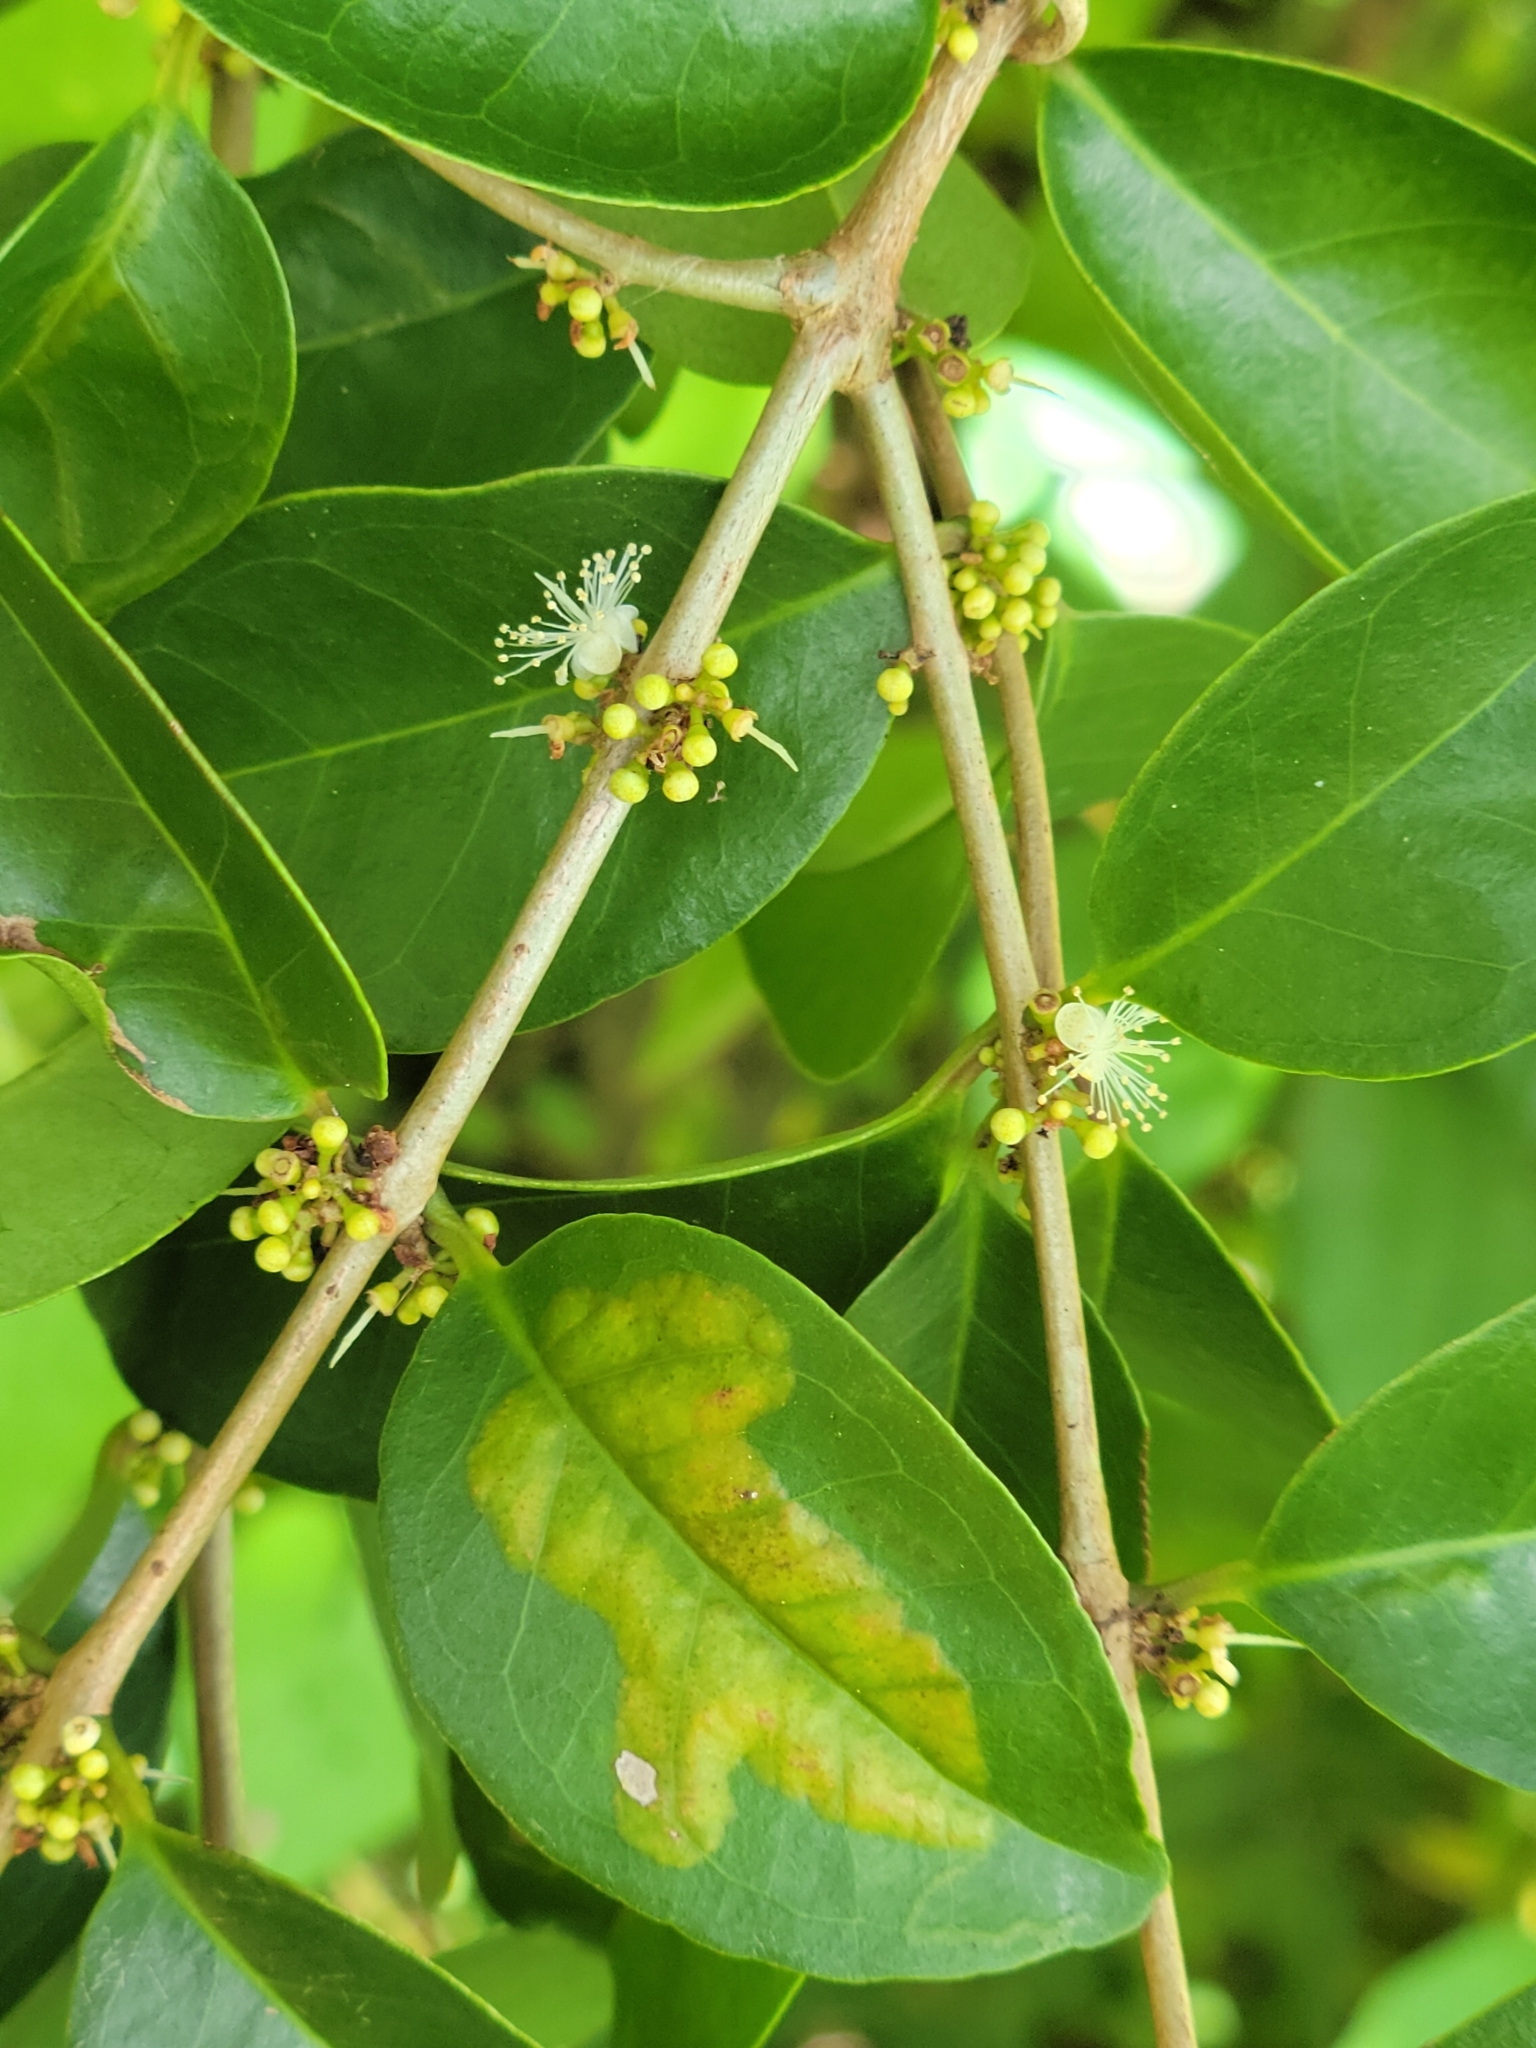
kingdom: Plantae
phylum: Tracheophyta
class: Magnoliopsida
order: Myrtales
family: Myrtaceae
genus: Eugenia
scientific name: Eugenia axillaris
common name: Choaky berry
